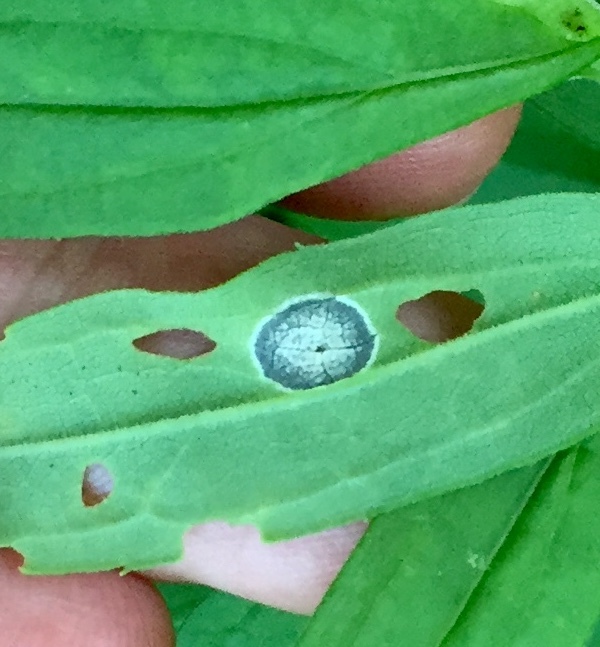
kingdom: Animalia
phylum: Arthropoda
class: Insecta
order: Diptera
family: Cecidomyiidae
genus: Asteromyia
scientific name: Asteromyia carbonifera
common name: Carbonifera goldenrod gall midge
